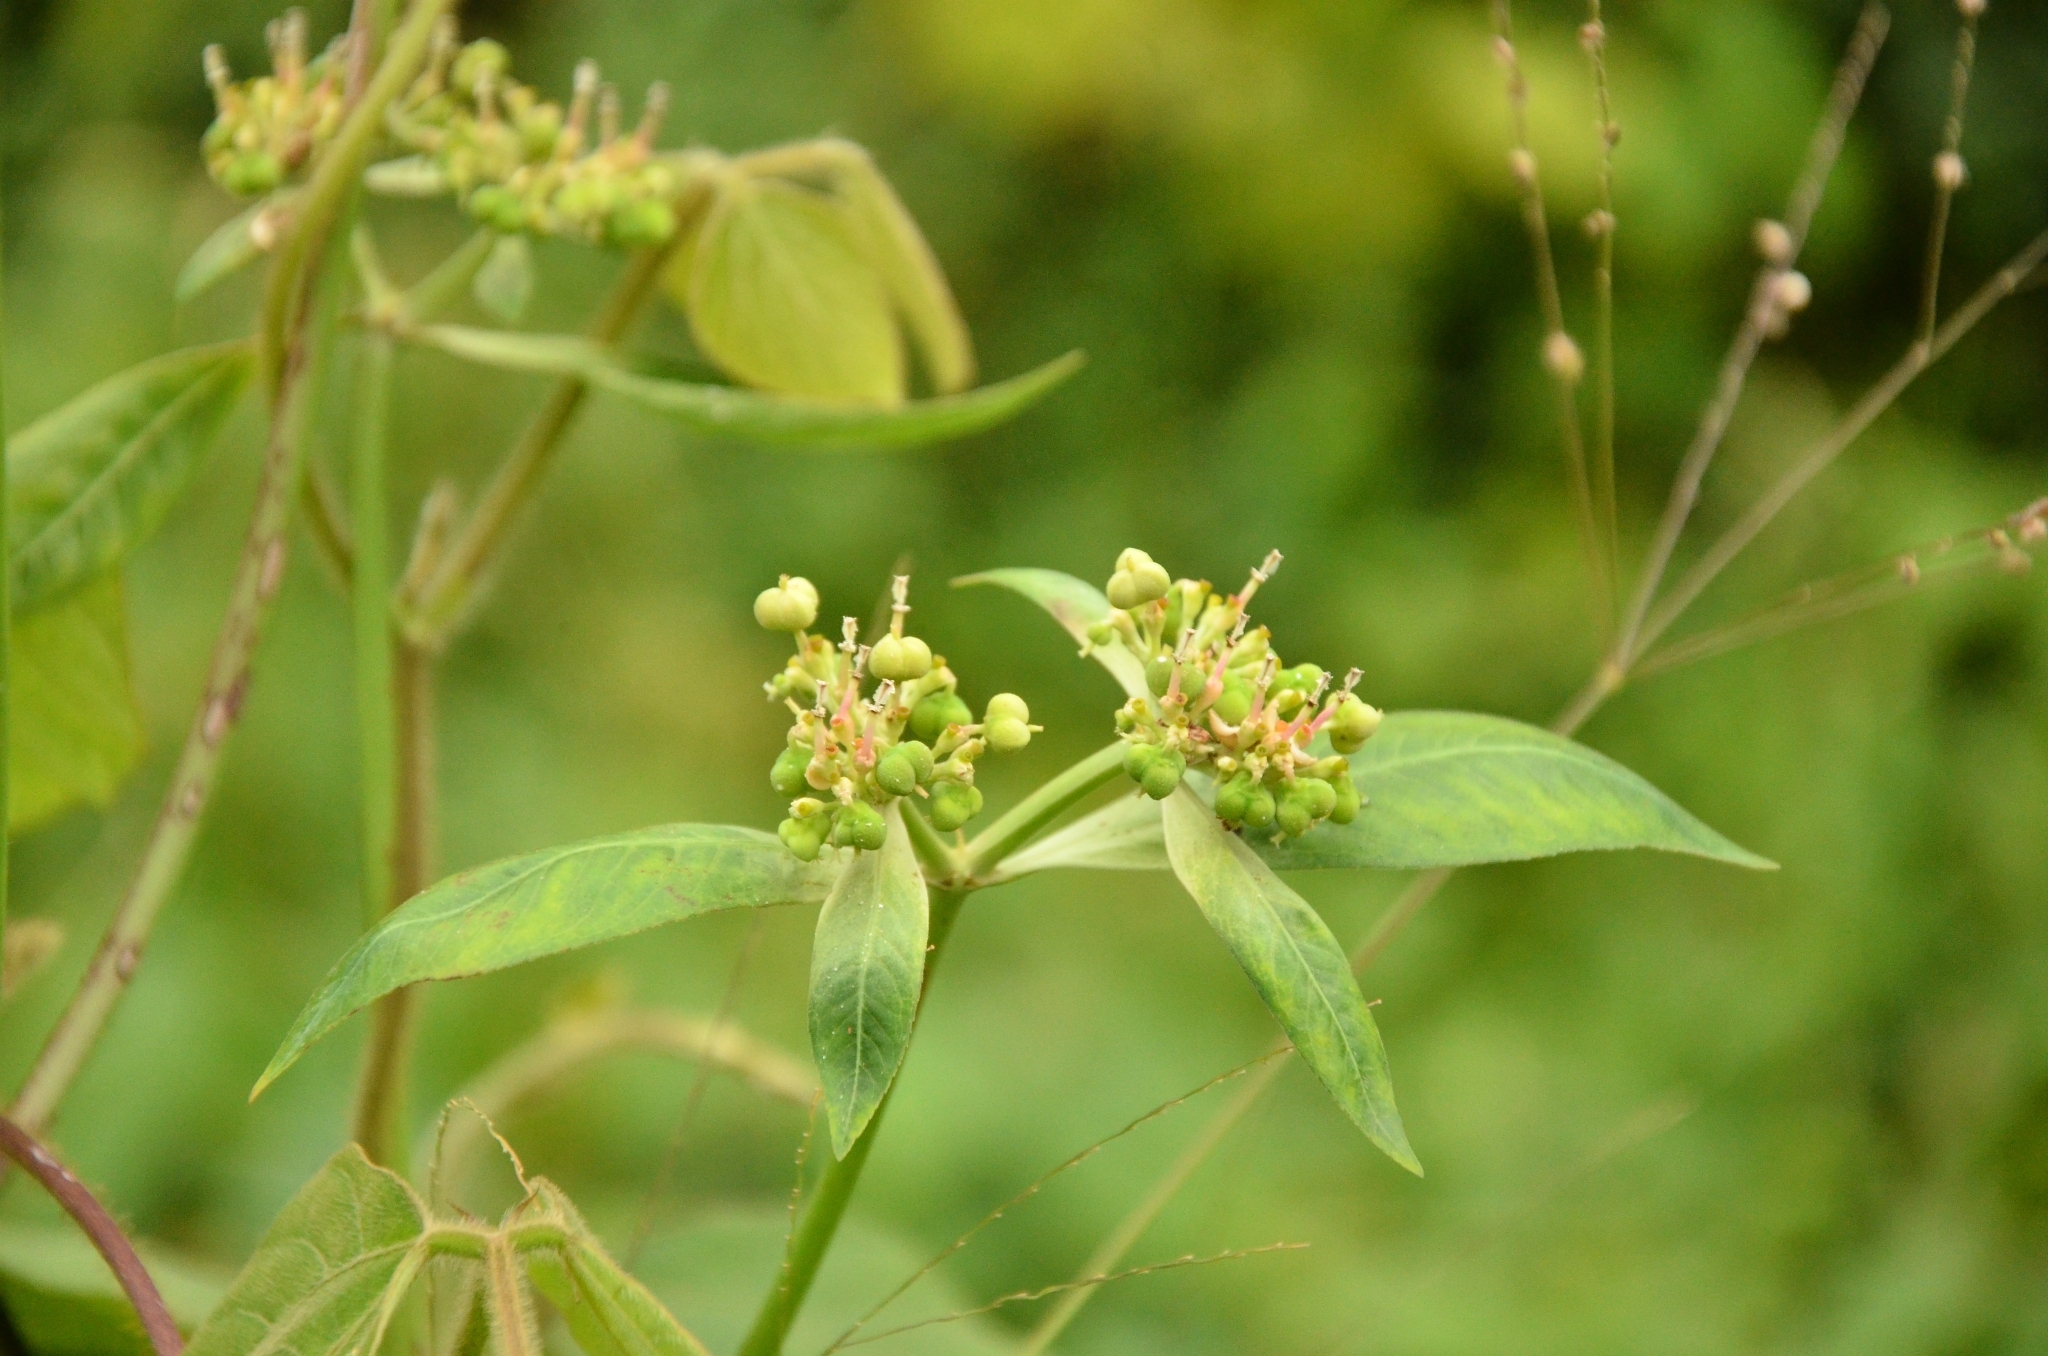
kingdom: Plantae
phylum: Tracheophyta
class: Magnoliopsida
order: Malpighiales
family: Euphorbiaceae
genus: Euphorbia
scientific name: Euphorbia heterophylla
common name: Mexican fireplant
